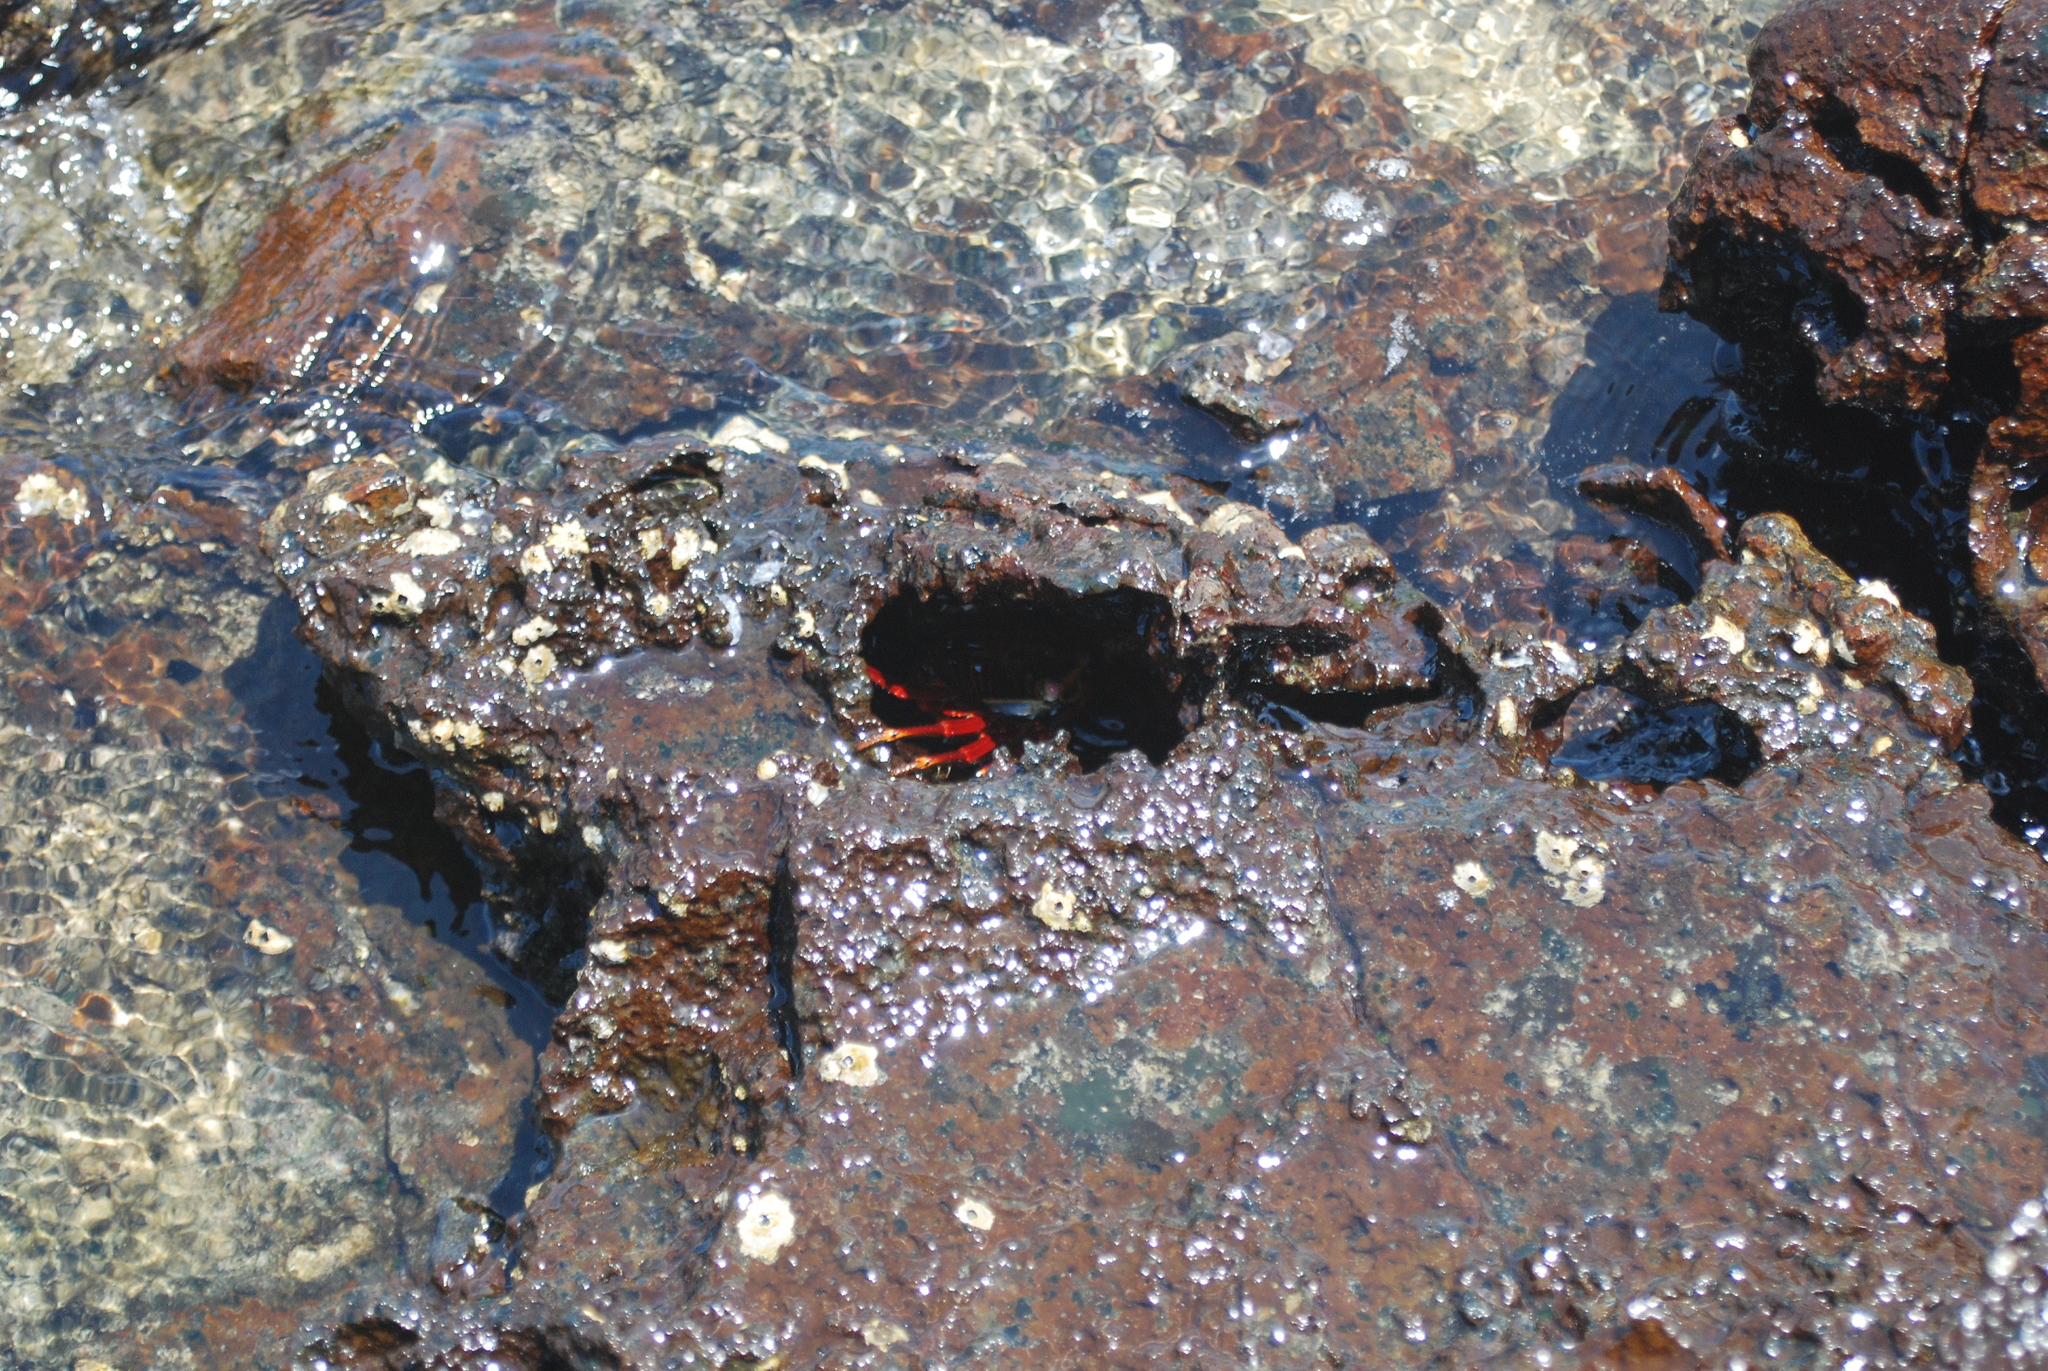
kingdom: Animalia
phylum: Arthropoda
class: Malacostraca
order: Decapoda
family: Grapsidae
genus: Grapsus
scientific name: Grapsus grapsus
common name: Sally lightfoot
